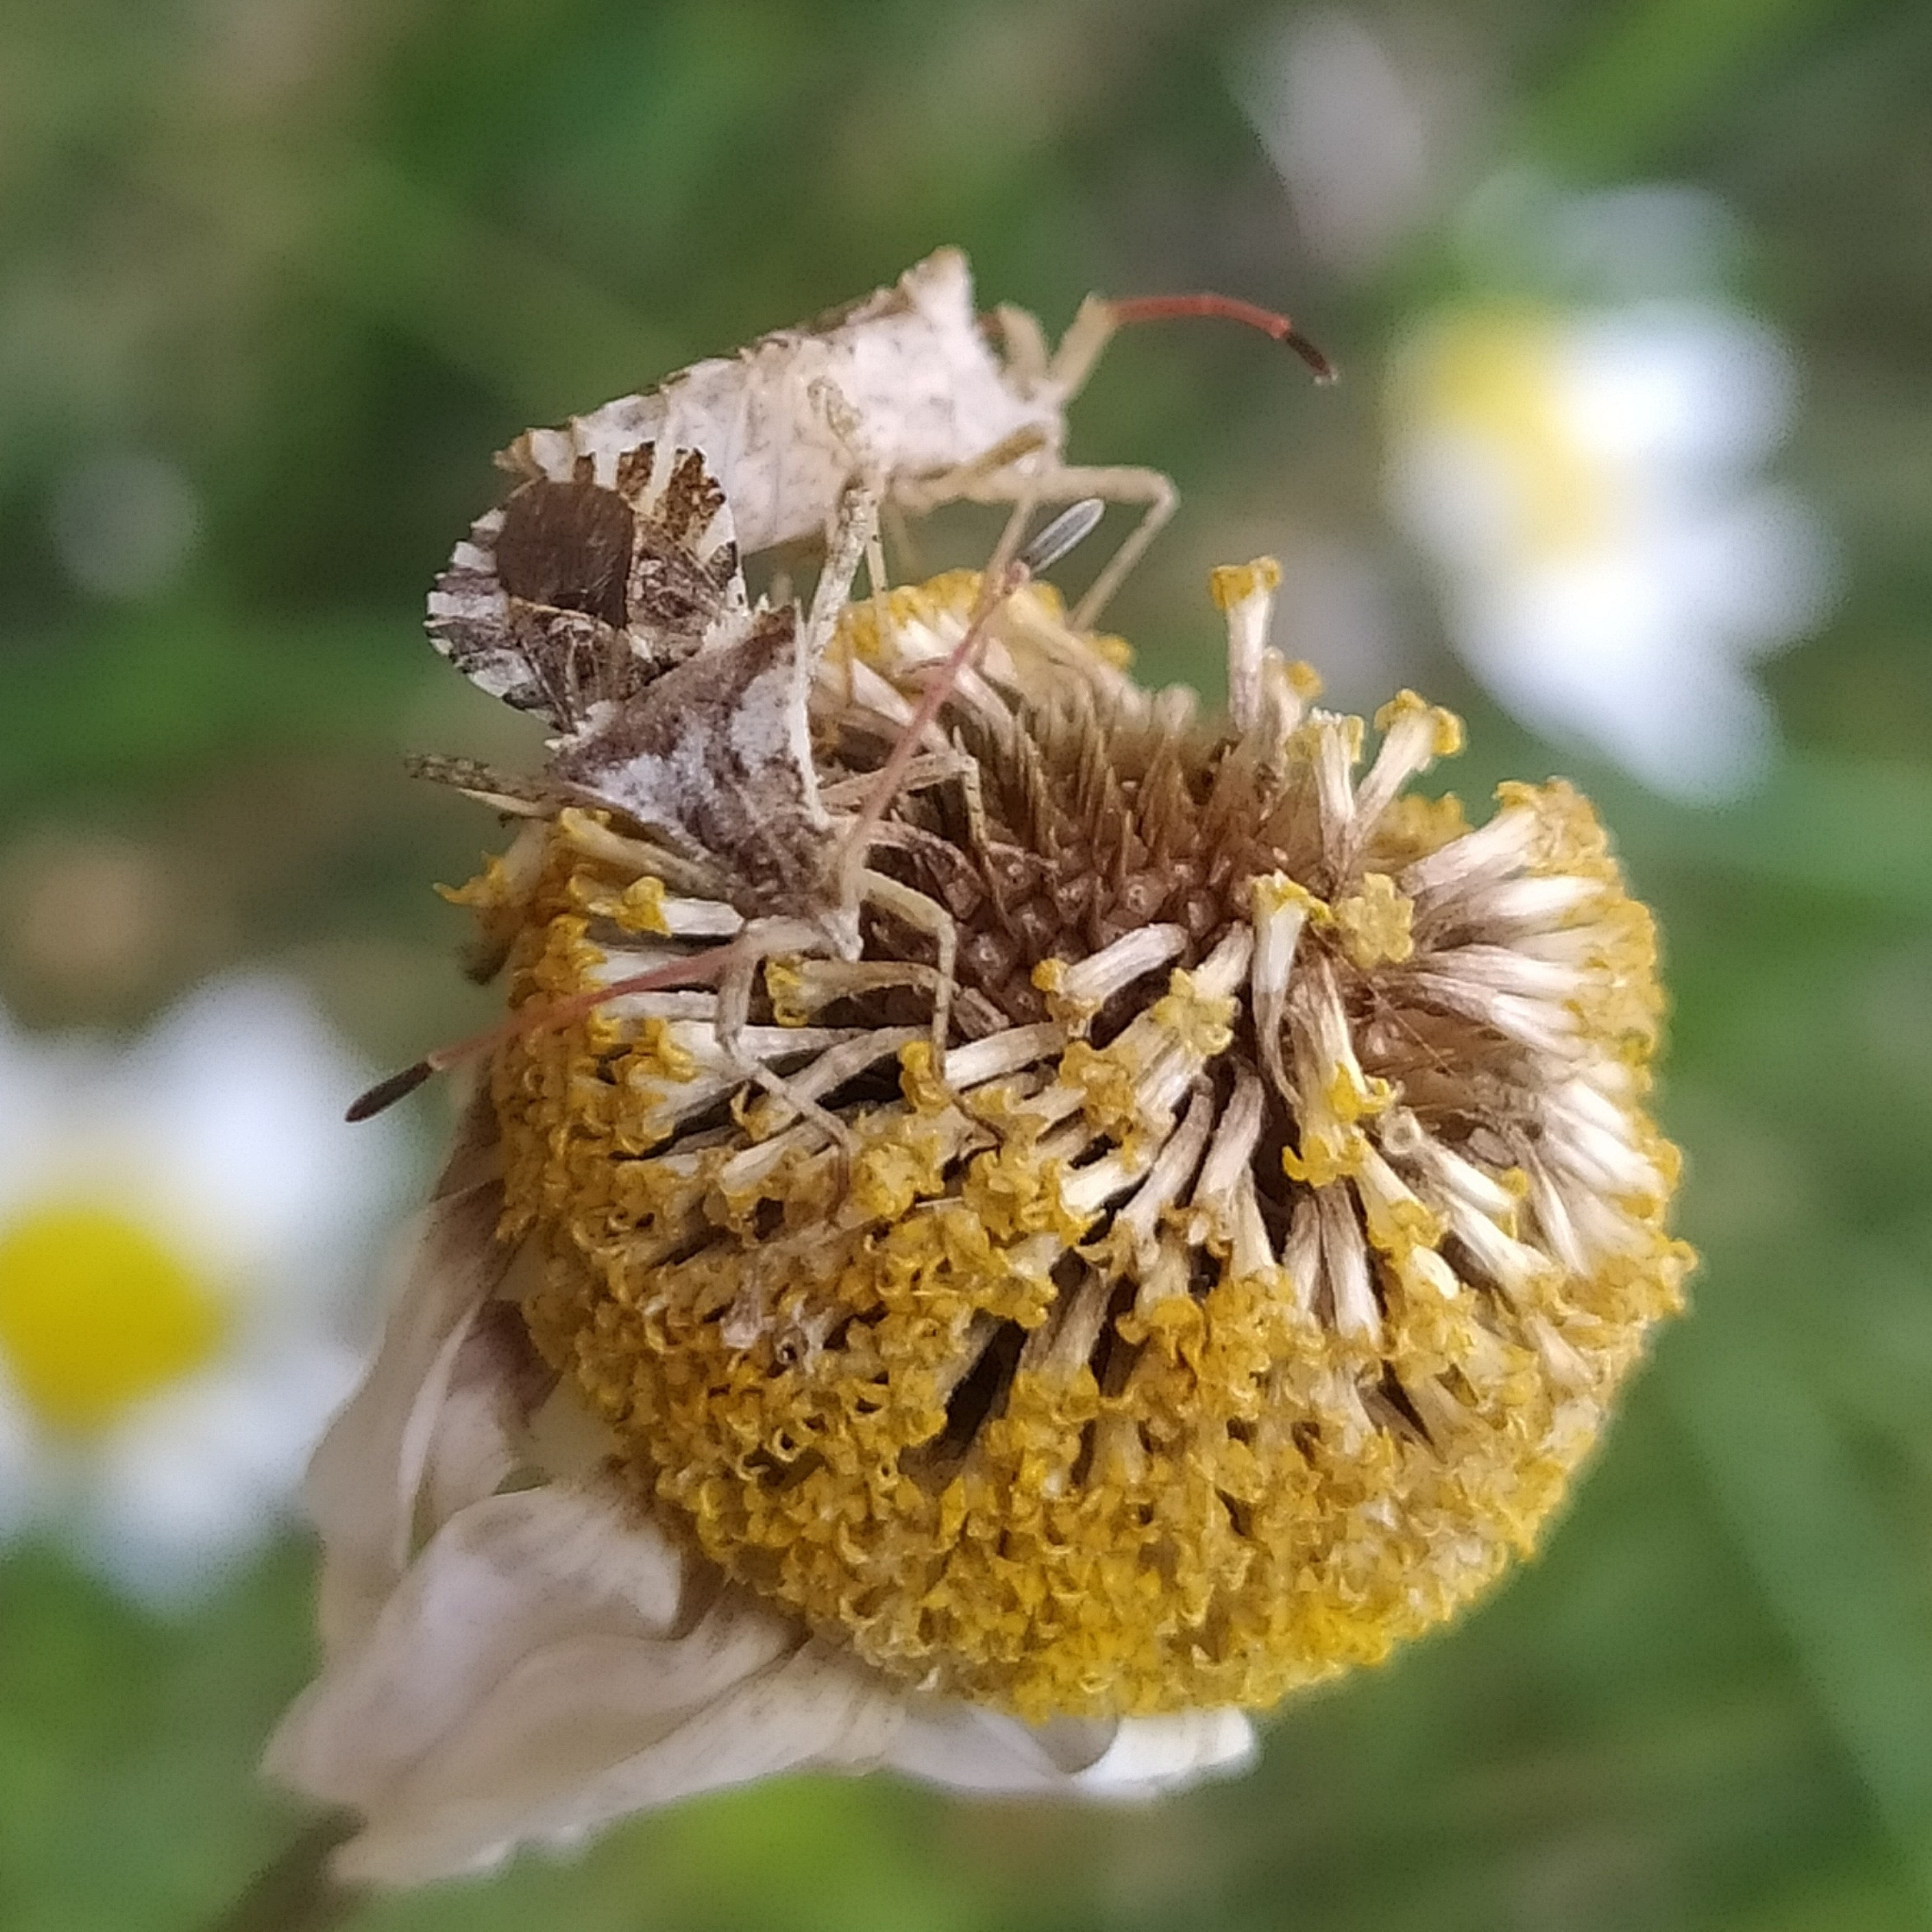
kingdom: Animalia
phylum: Arthropoda
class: Insecta
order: Hemiptera
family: Coreidae
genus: Centrocoris
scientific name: Centrocoris spiniger
